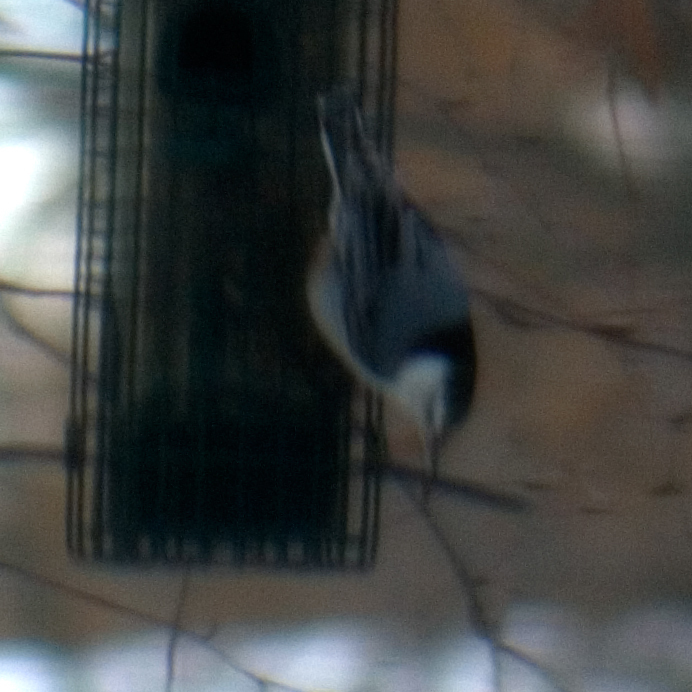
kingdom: Animalia
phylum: Chordata
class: Aves
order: Passeriformes
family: Sittidae
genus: Sitta
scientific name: Sitta carolinensis
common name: White-breasted nuthatch
